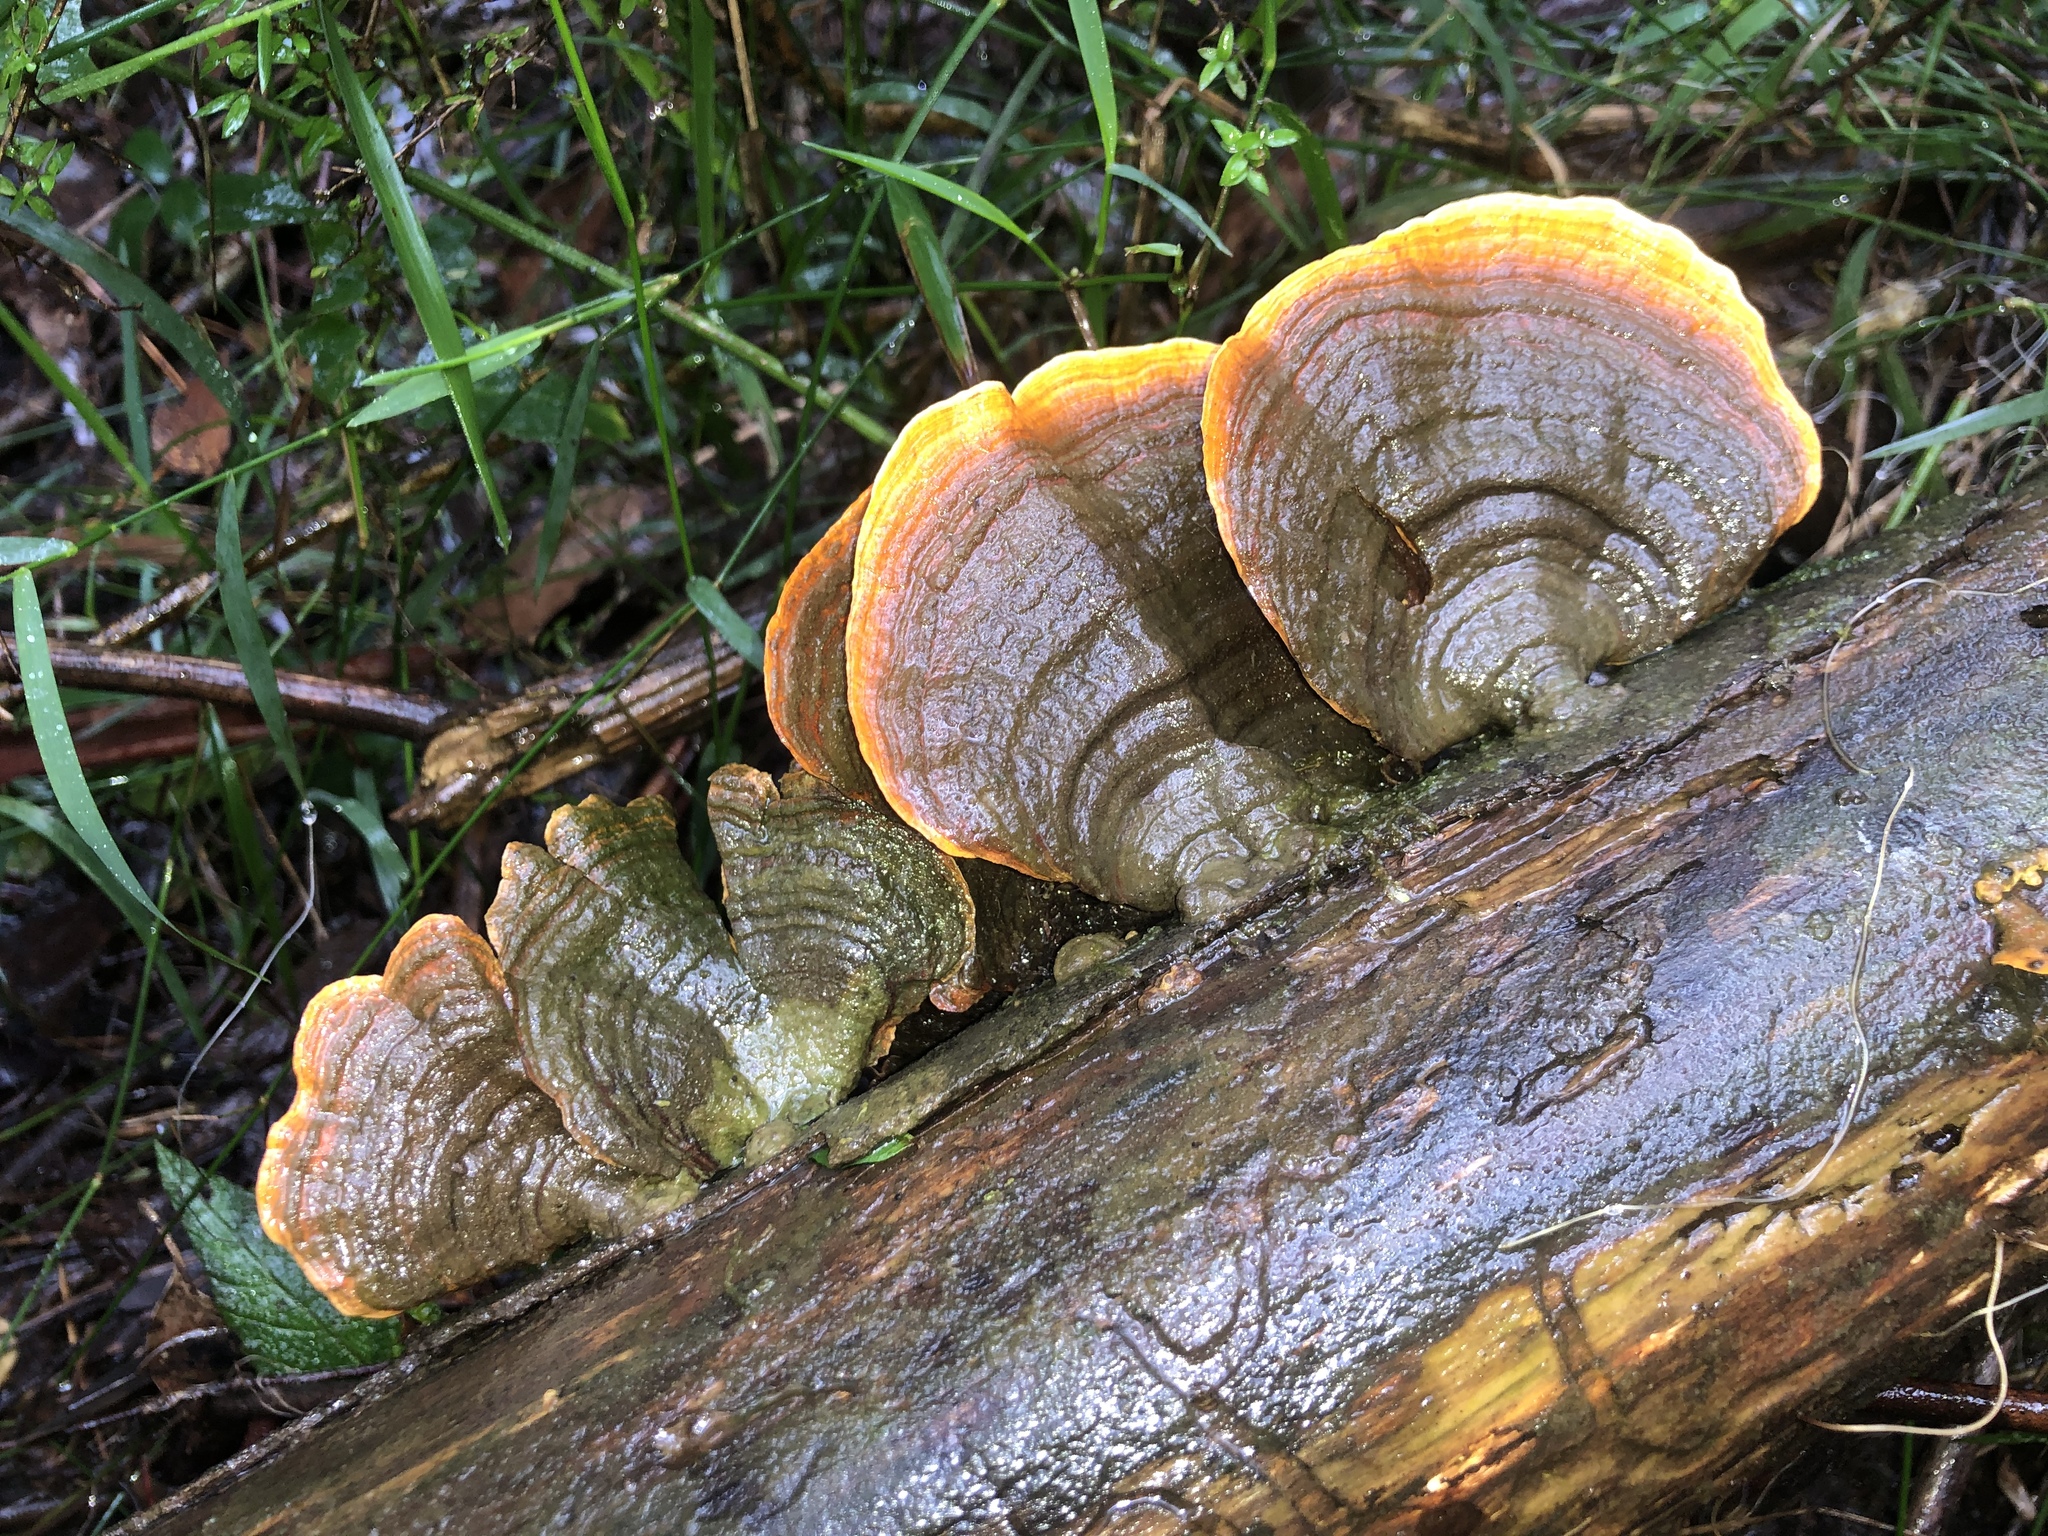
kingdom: Fungi
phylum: Basidiomycota
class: Agaricomycetes
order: Russulales
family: Stereaceae
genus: Stereum
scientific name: Stereum versicolor
